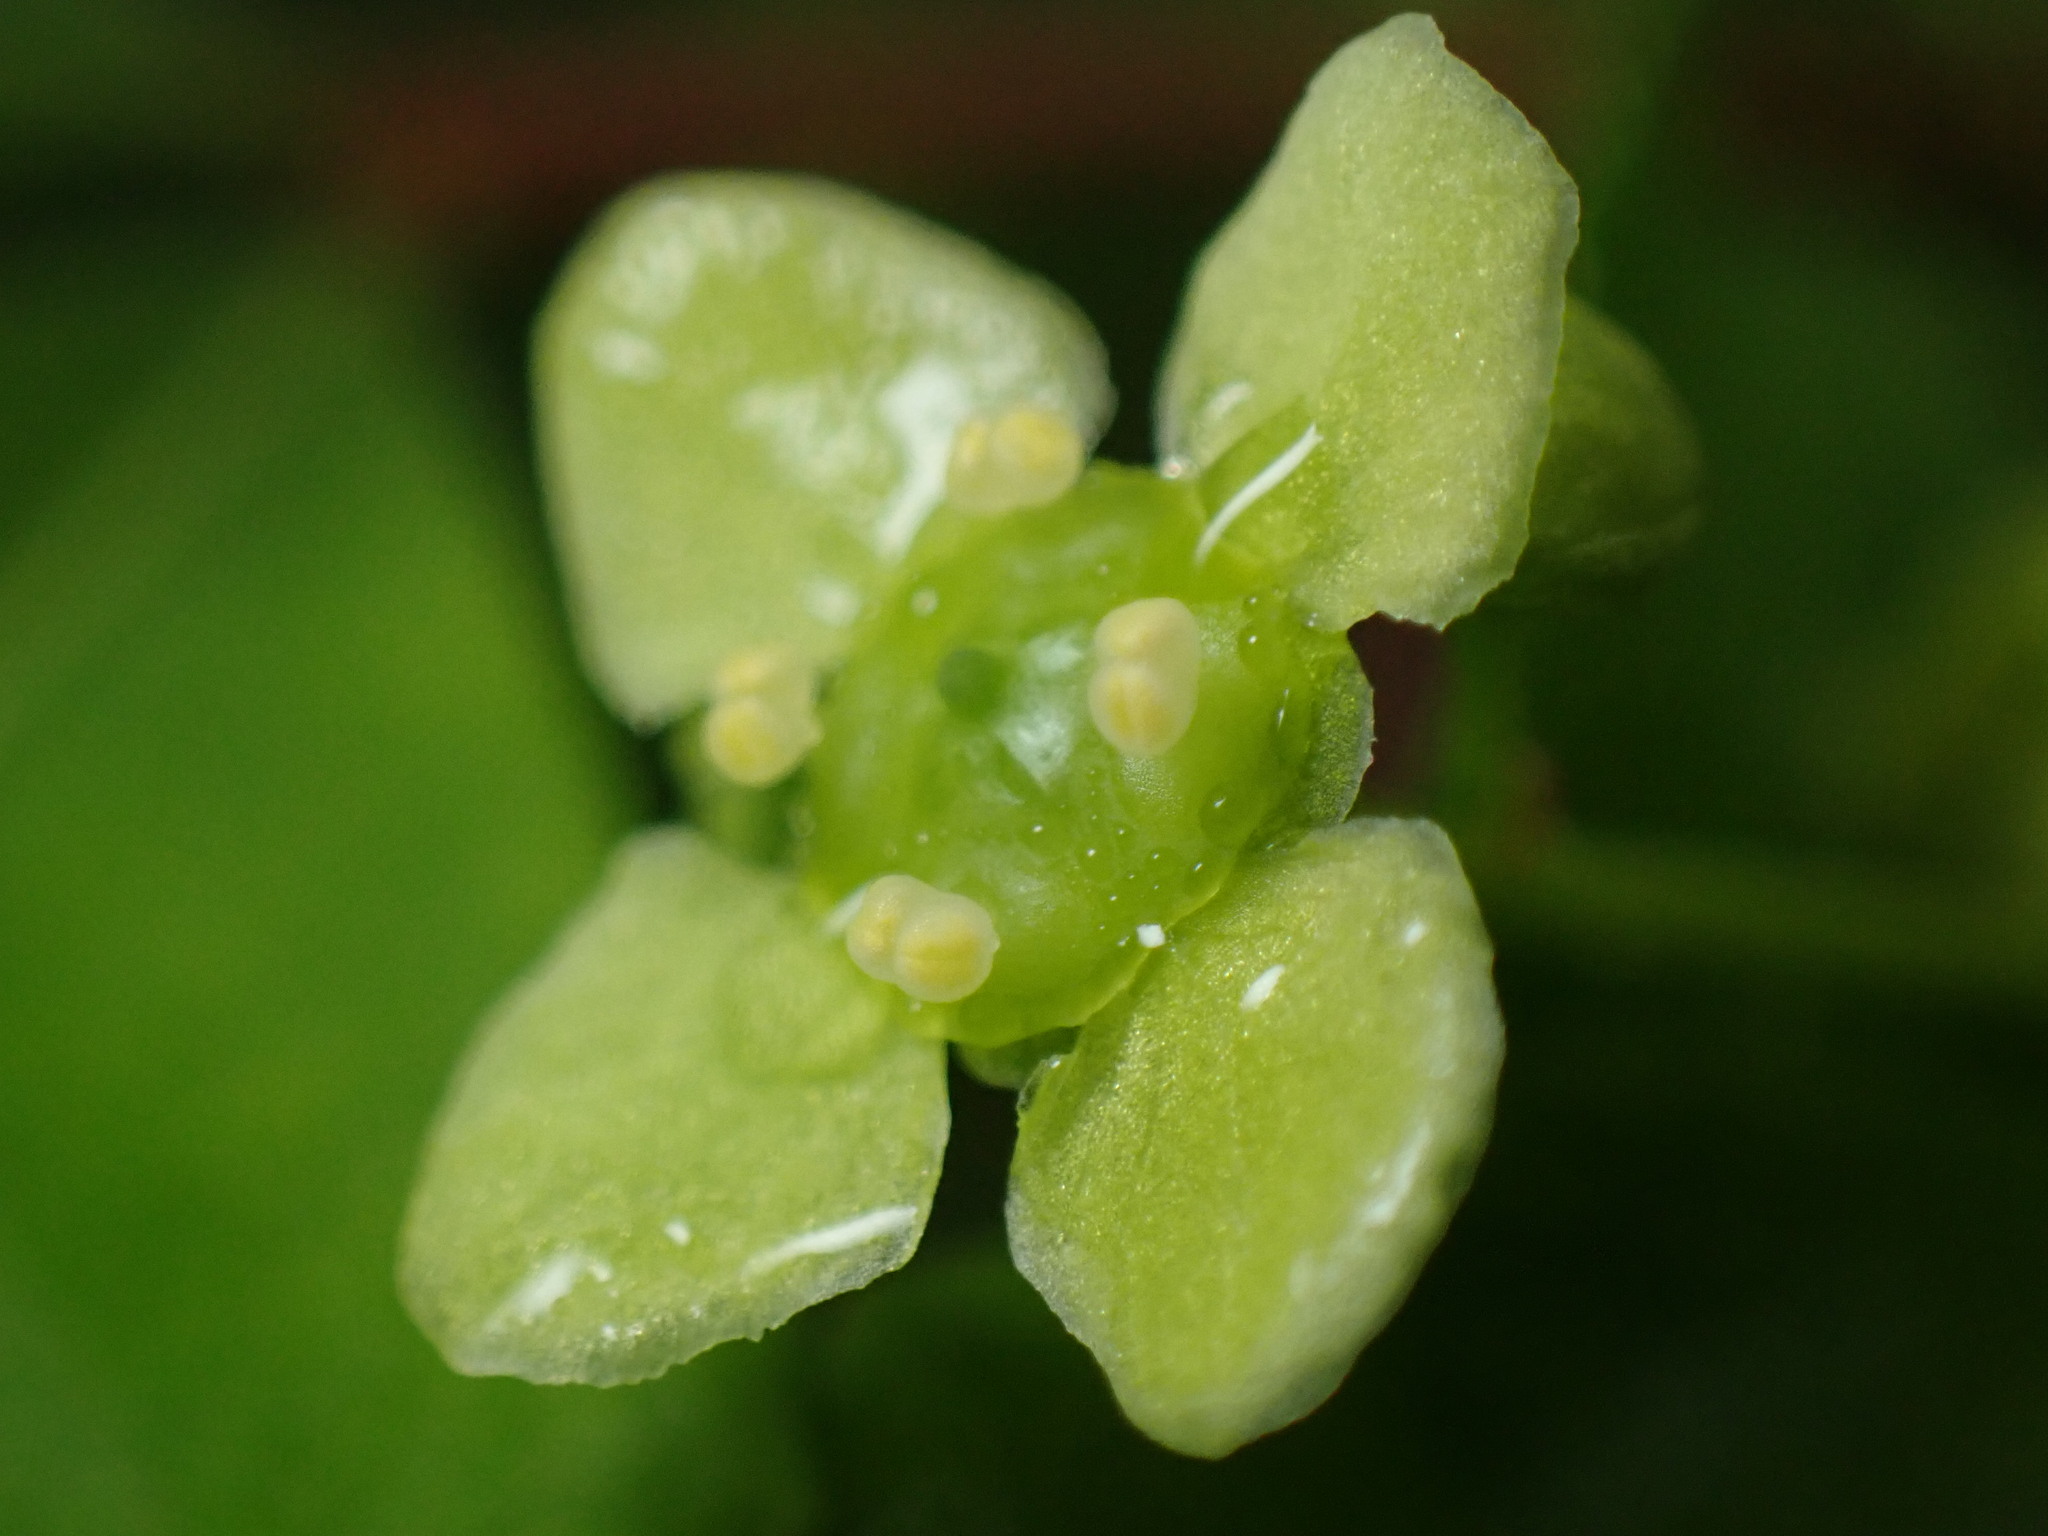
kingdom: Plantae
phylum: Tracheophyta
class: Magnoliopsida
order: Celastrales
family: Celastraceae
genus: Euonymus
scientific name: Euonymus alatus
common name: Winged euonymus
